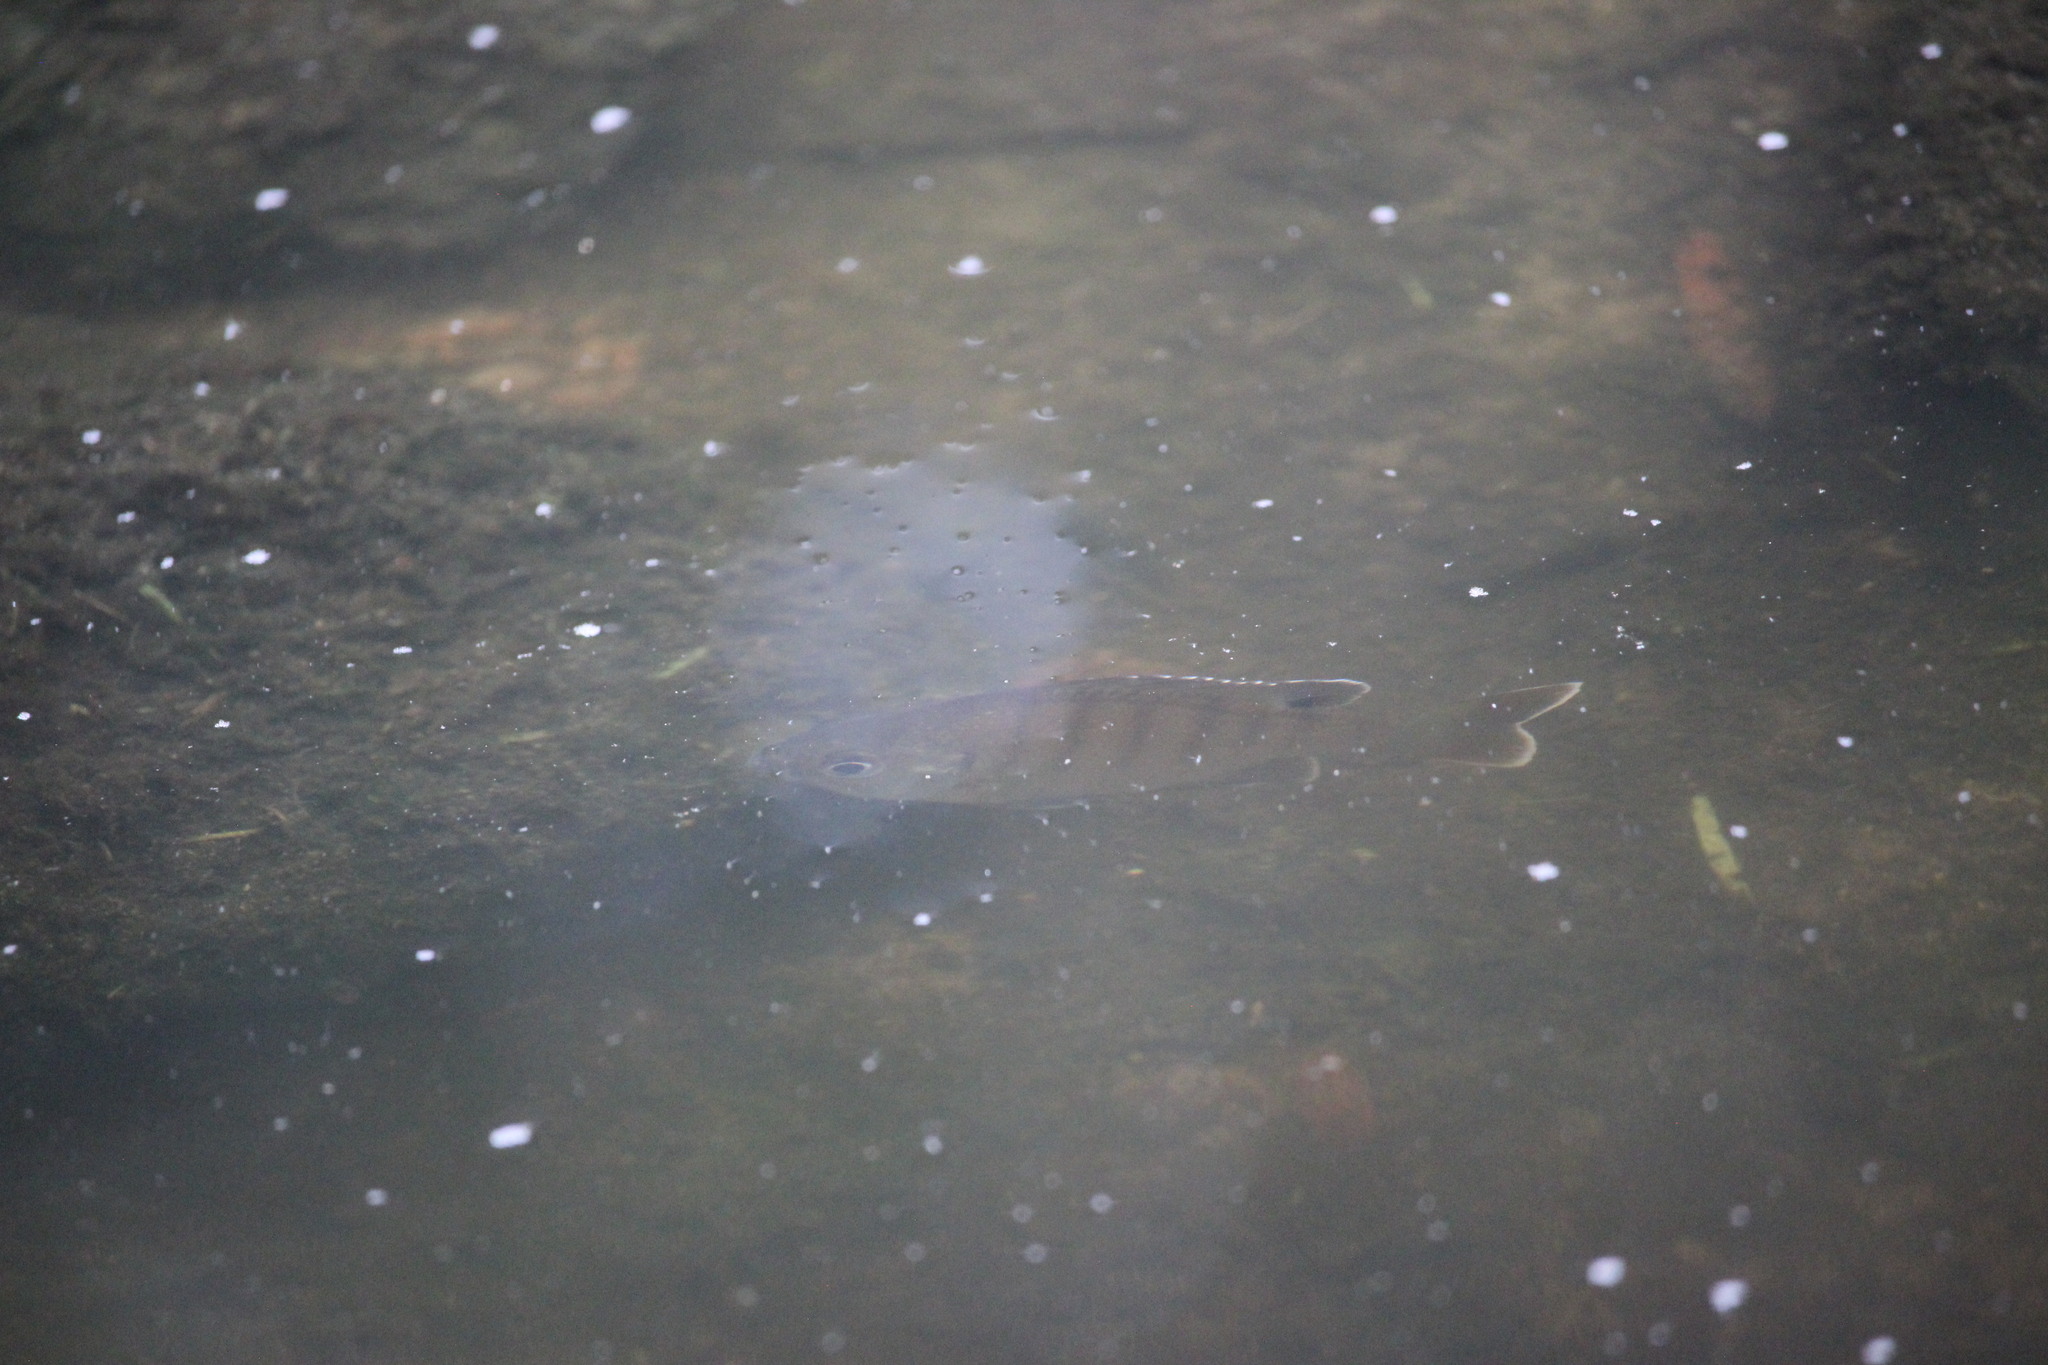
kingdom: Animalia
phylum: Chordata
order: Perciformes
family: Centrarchidae
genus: Lepomis
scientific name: Lepomis macrochirus
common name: Bluegill
